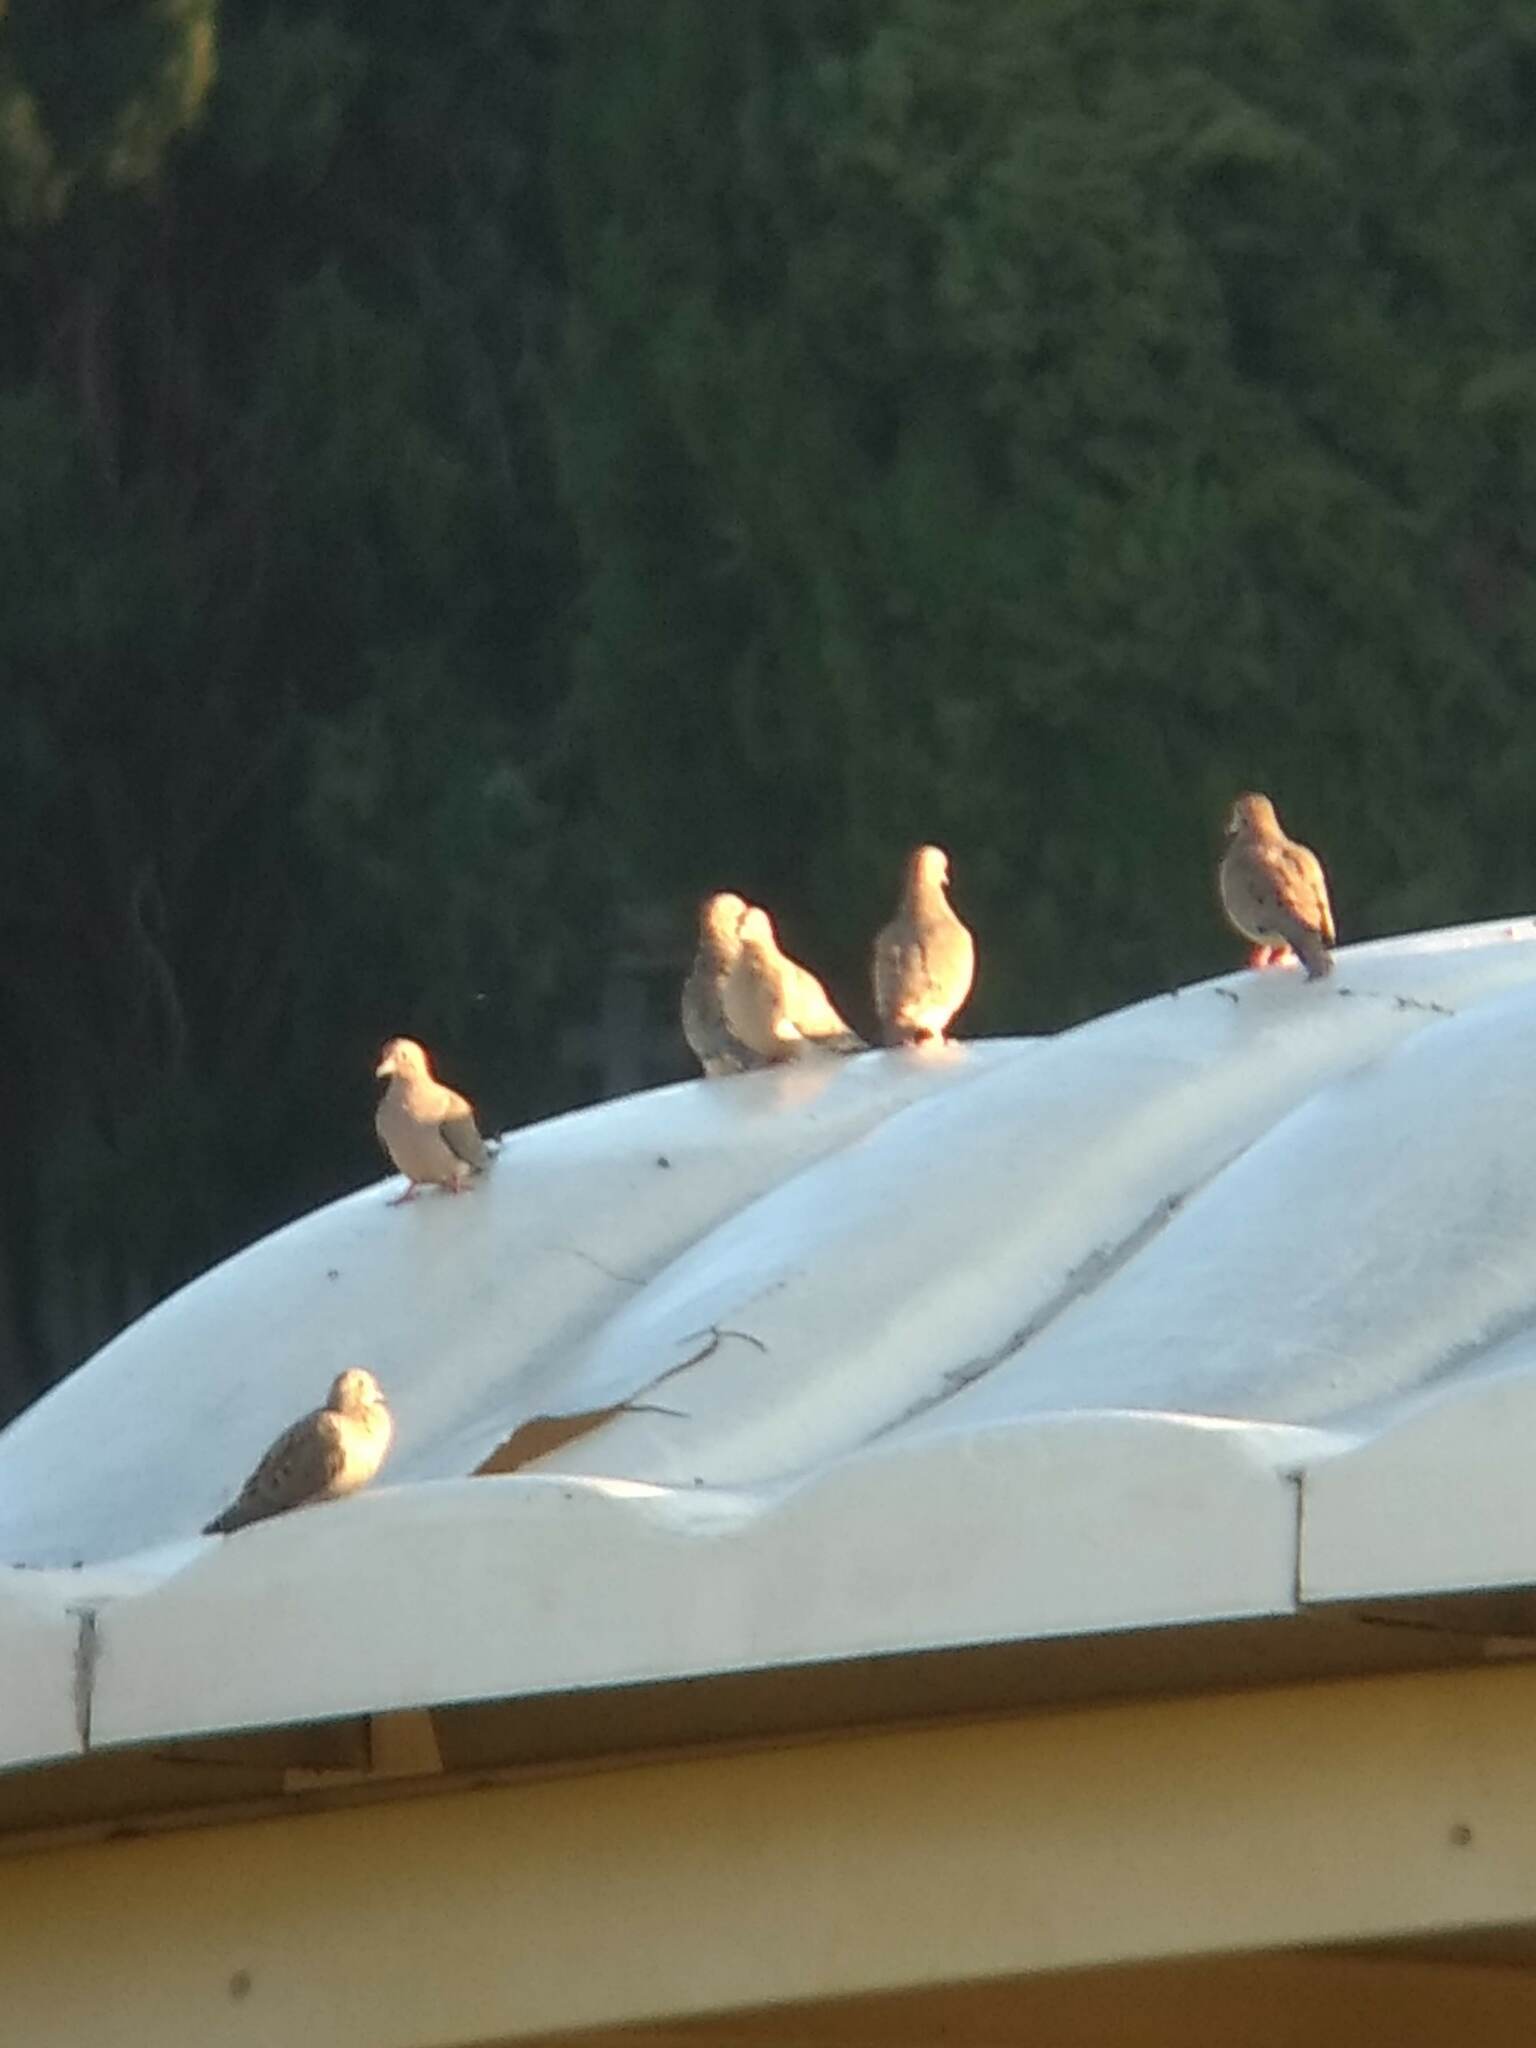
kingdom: Animalia
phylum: Chordata
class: Aves
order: Columbiformes
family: Columbidae
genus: Zenaida
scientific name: Zenaida macroura
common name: Mourning dove
